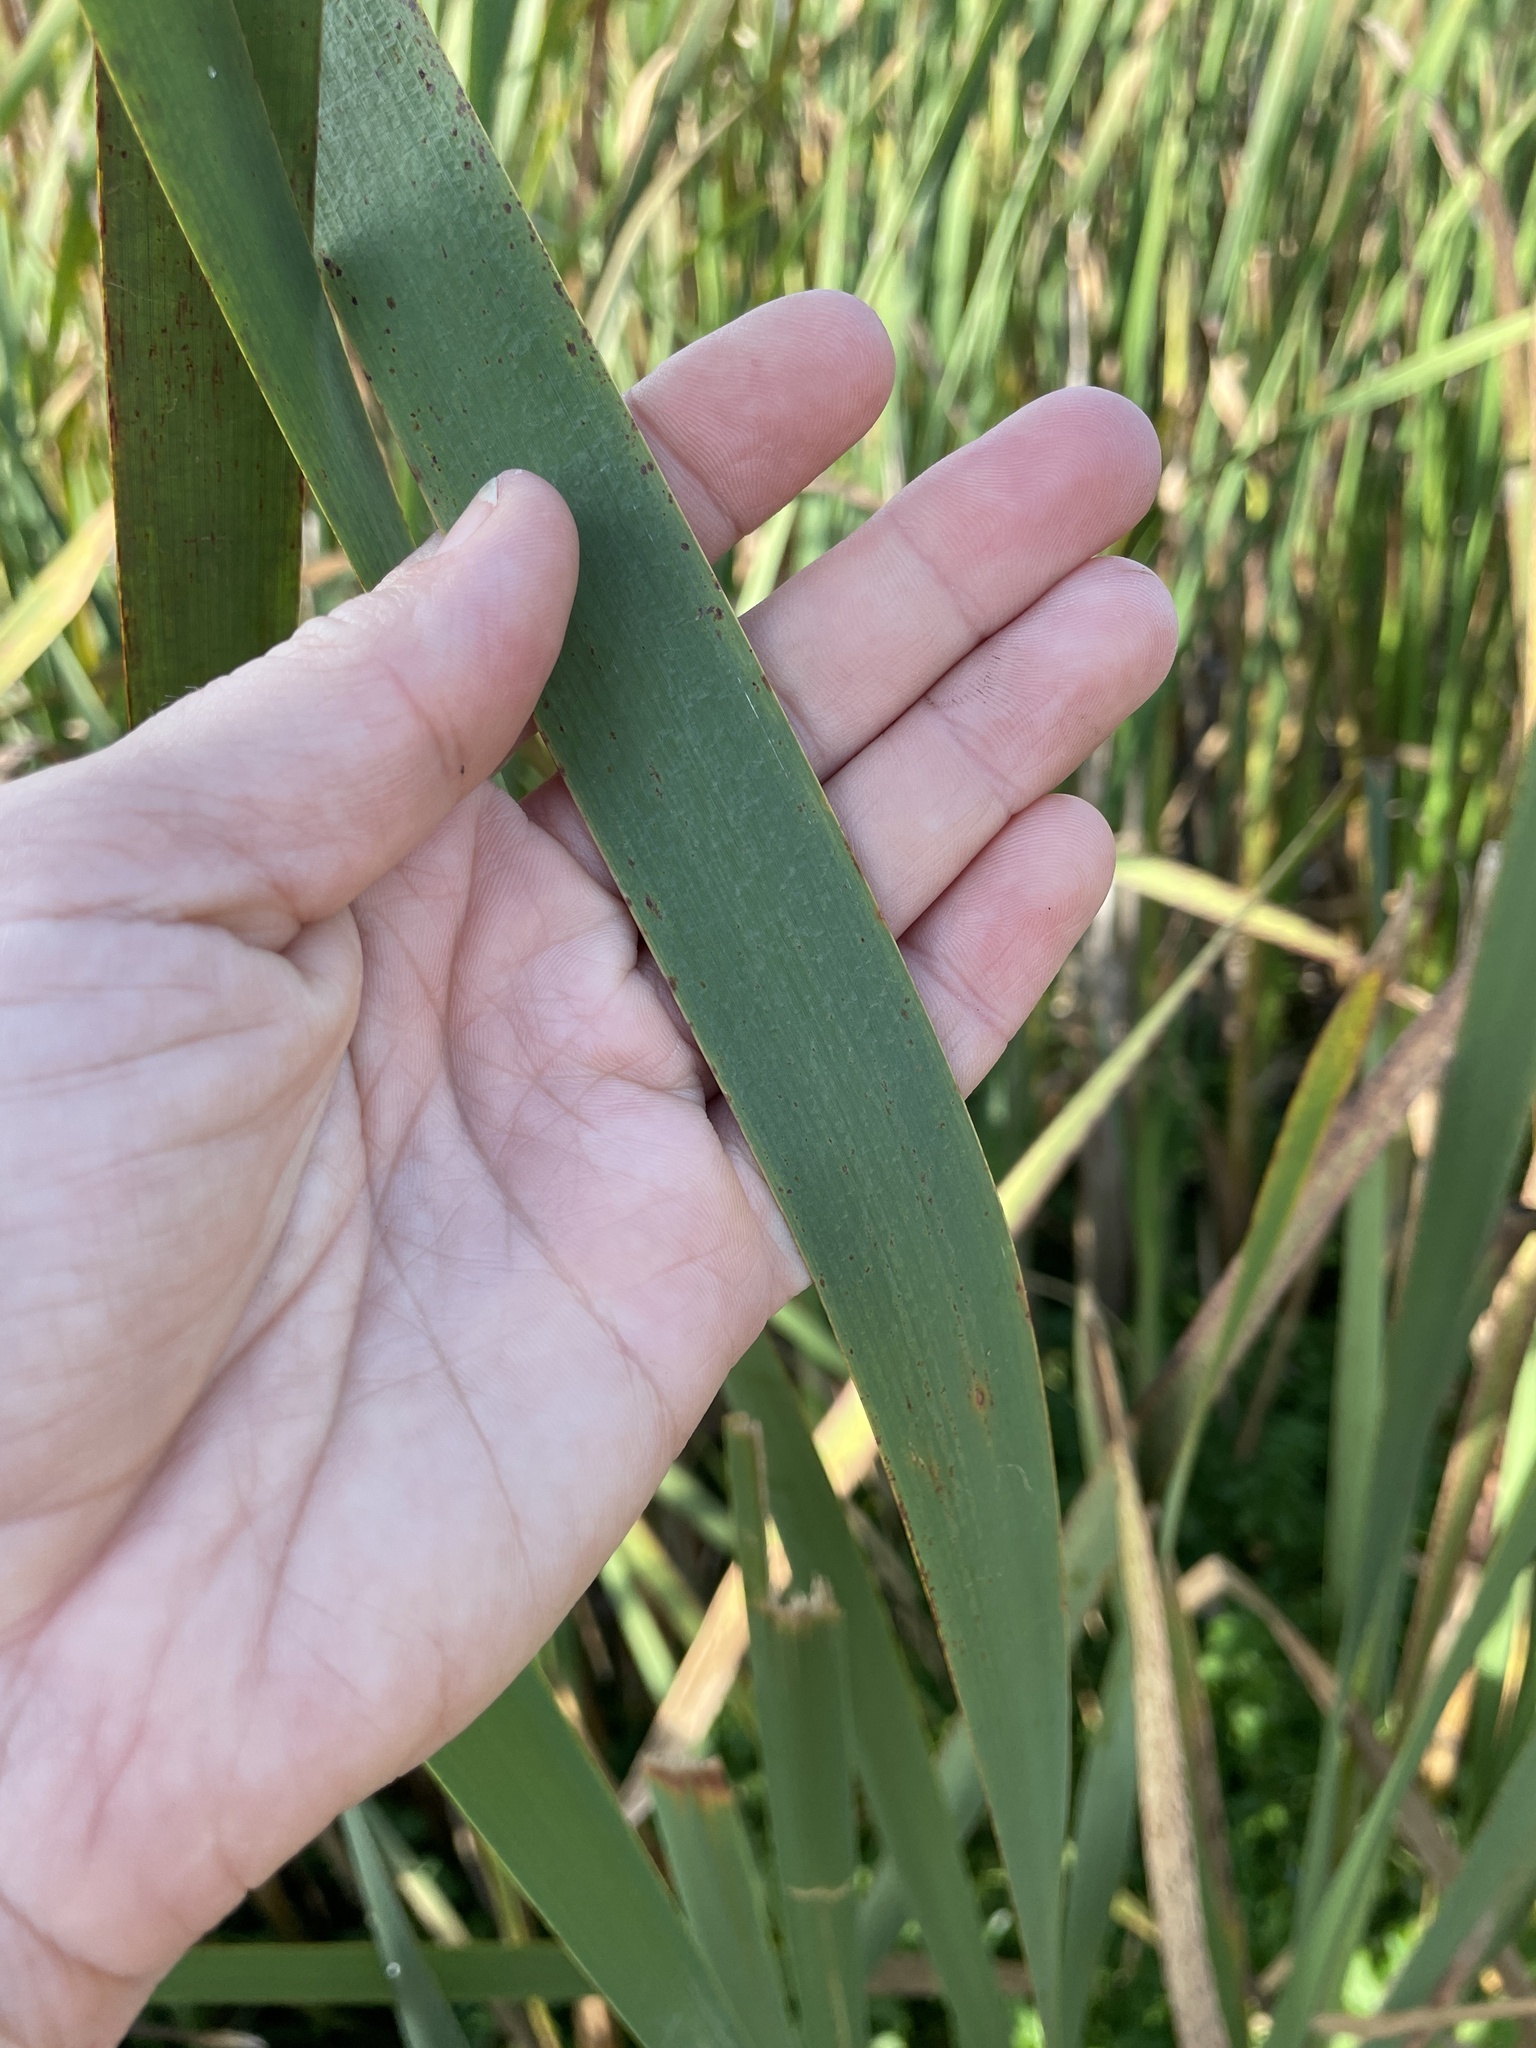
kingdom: Plantae
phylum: Tracheophyta
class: Liliopsida
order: Poales
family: Typhaceae
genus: Typha
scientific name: Typha latifolia
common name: Broadleaf cattail
